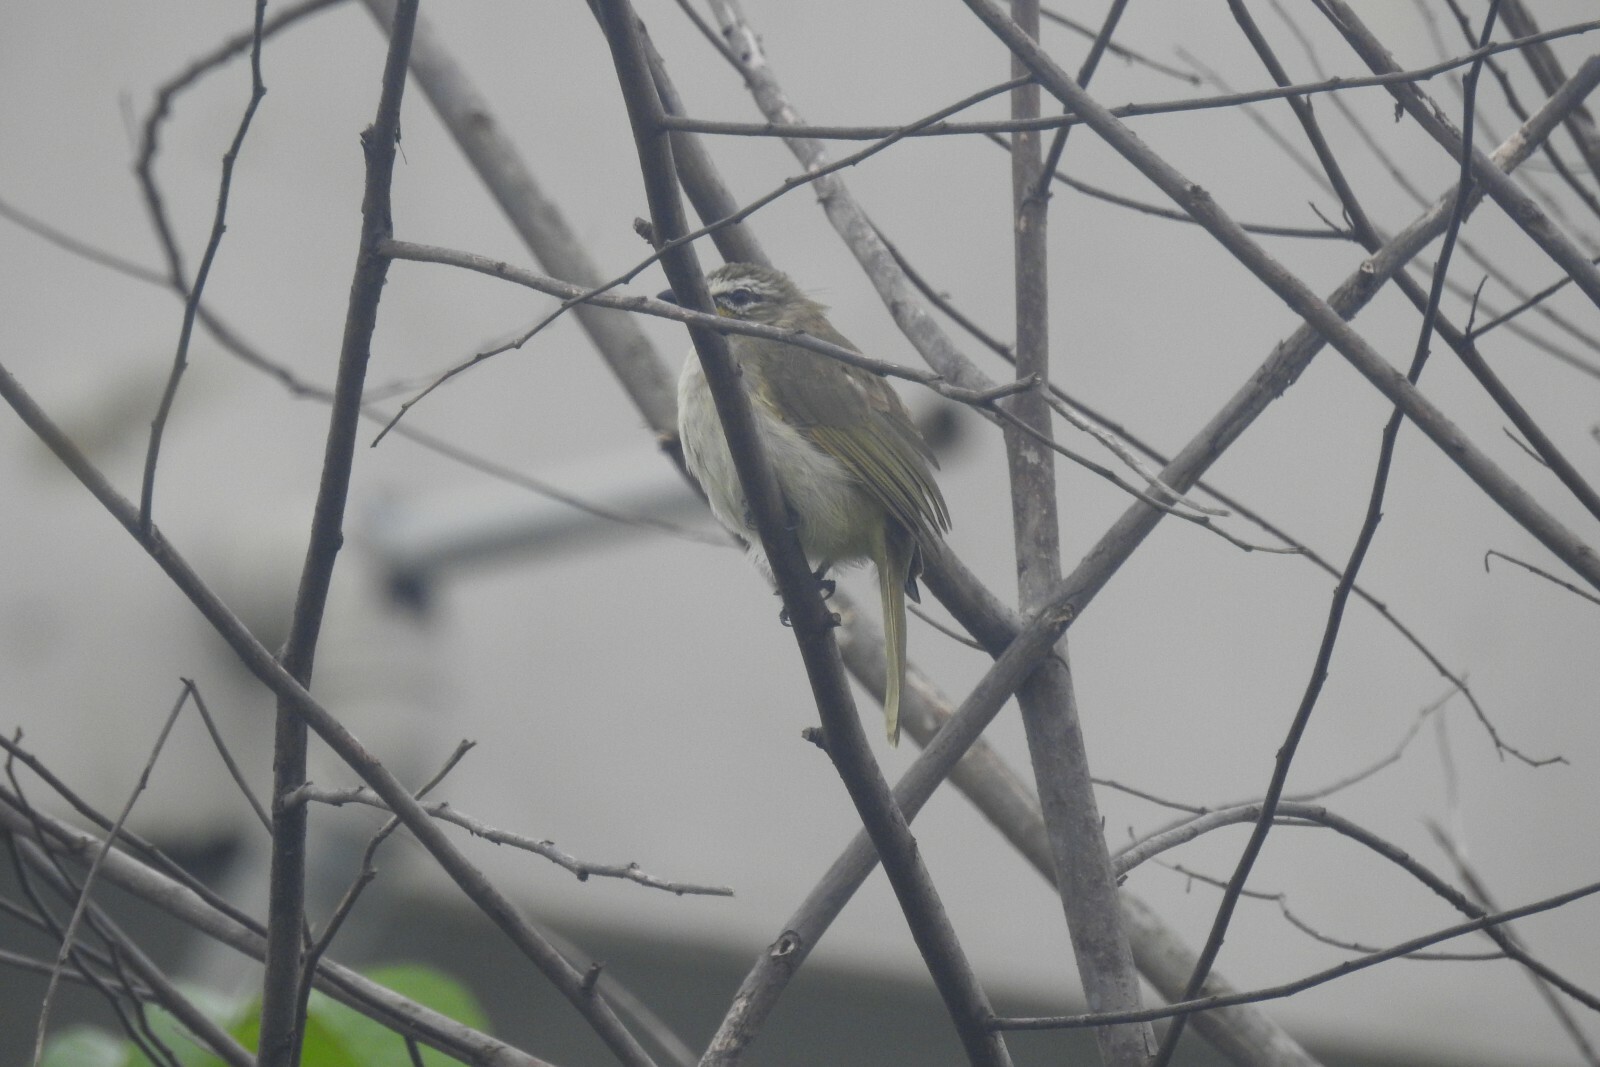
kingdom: Animalia
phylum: Chordata
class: Aves
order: Passeriformes
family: Pycnonotidae
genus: Pycnonotus
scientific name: Pycnonotus luteolus
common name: White-browed bulbul
